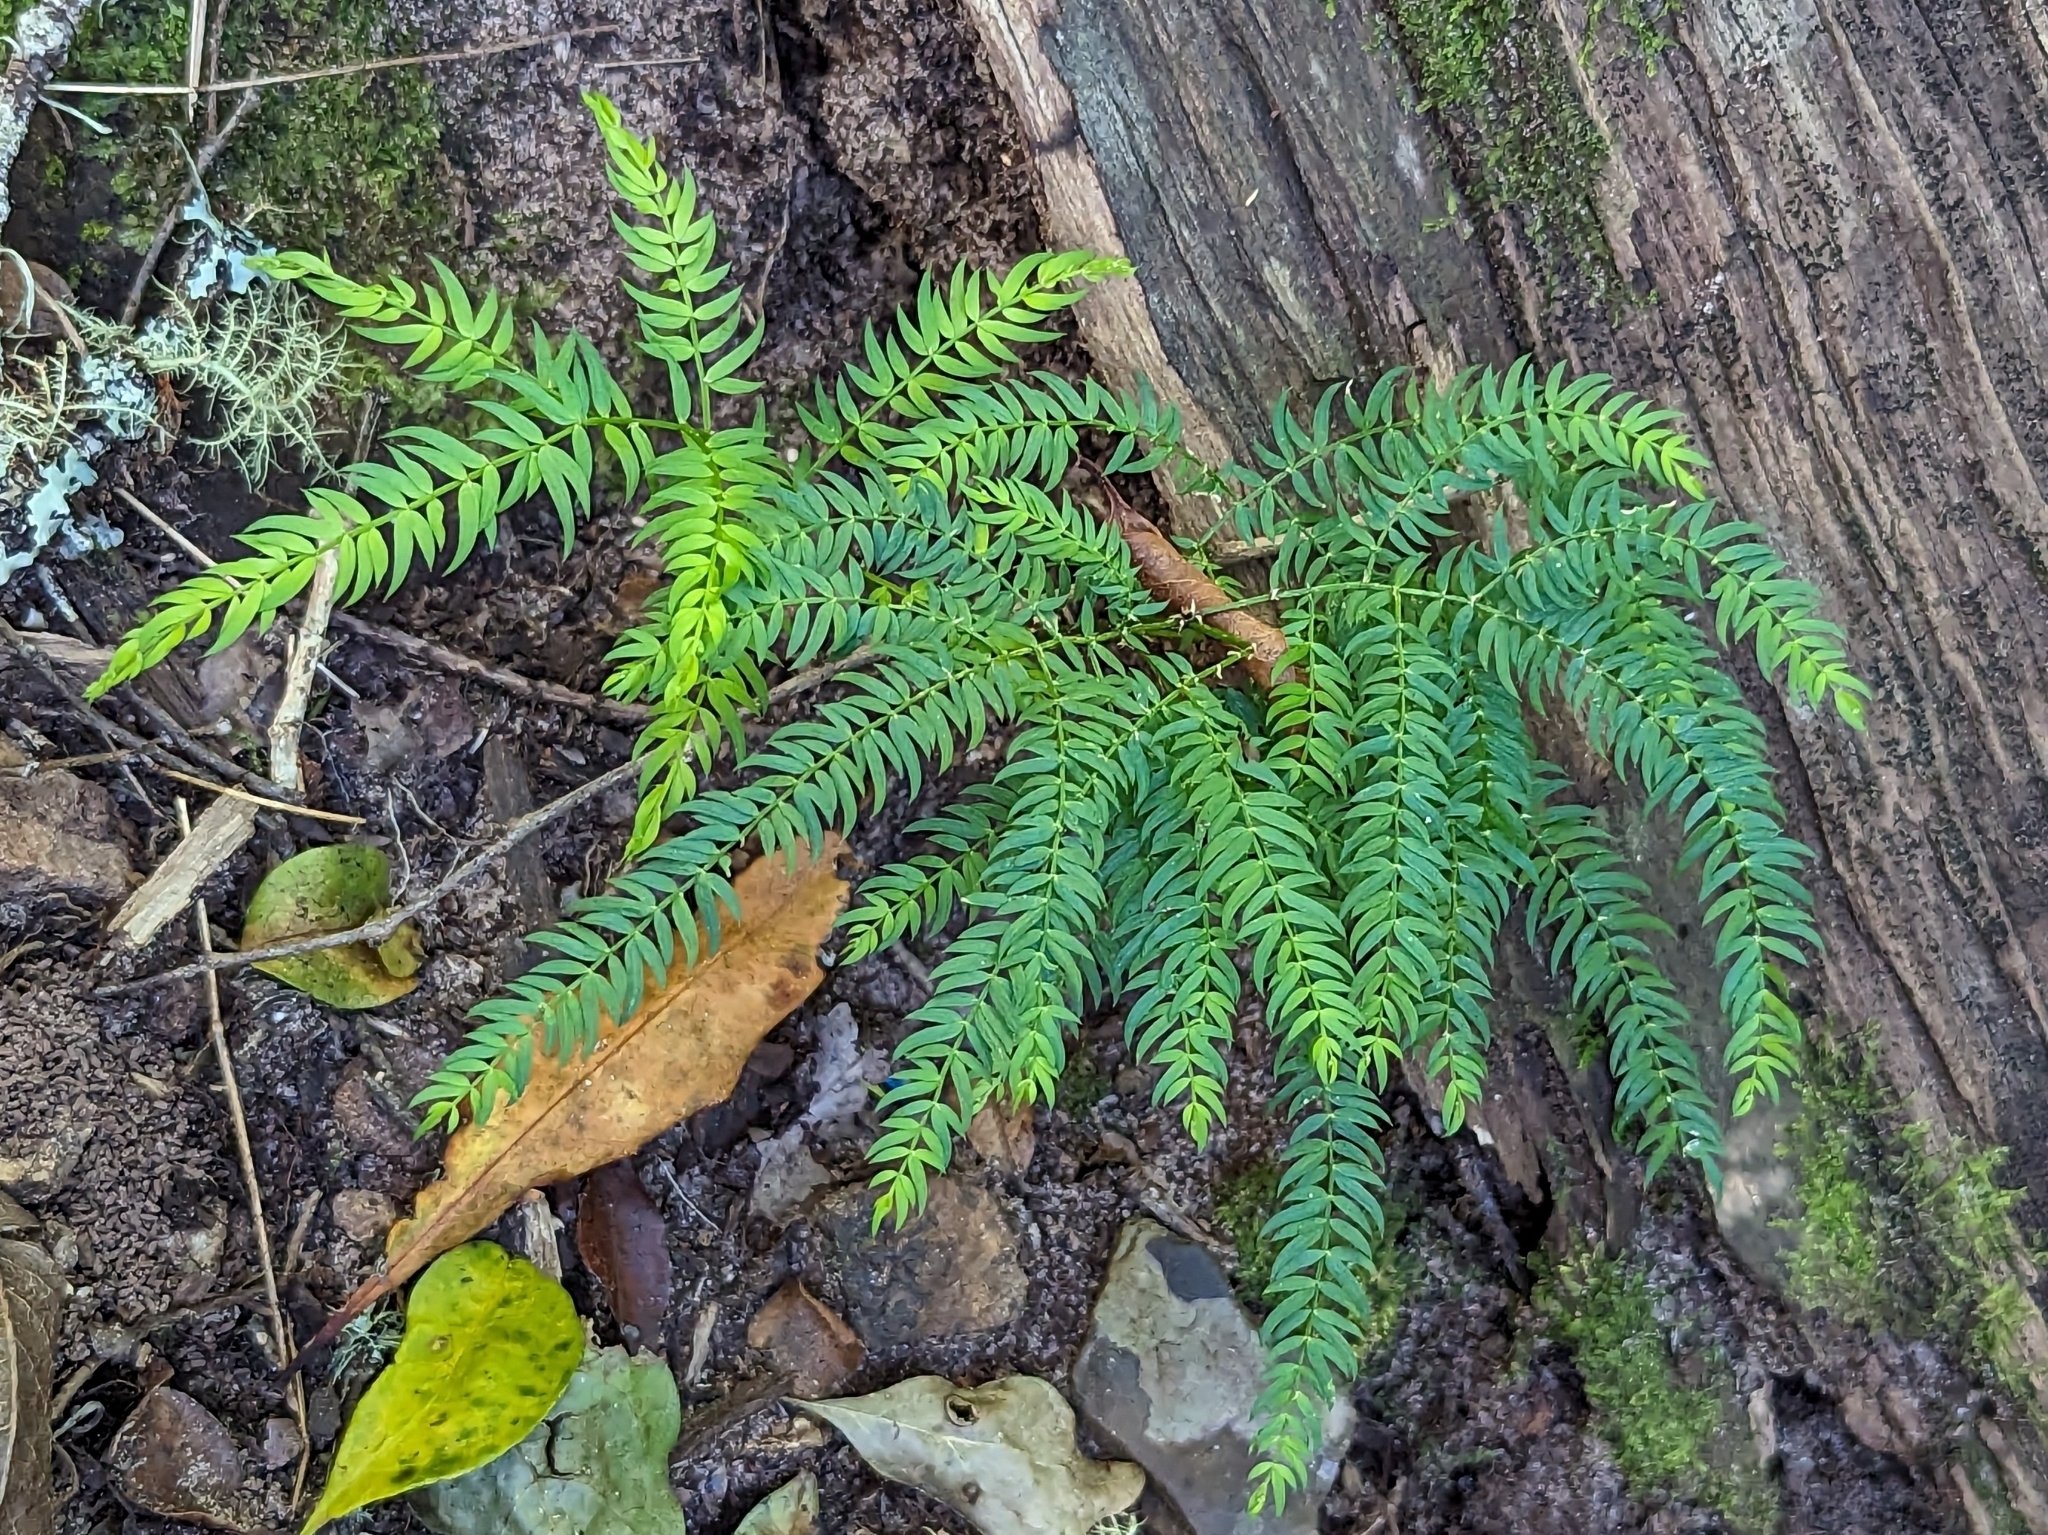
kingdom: Plantae
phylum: Tracheophyta
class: Liliopsida
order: Asparagales
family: Asparagaceae
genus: Asparagus
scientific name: Asparagus scandens
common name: Asparagus-fern
